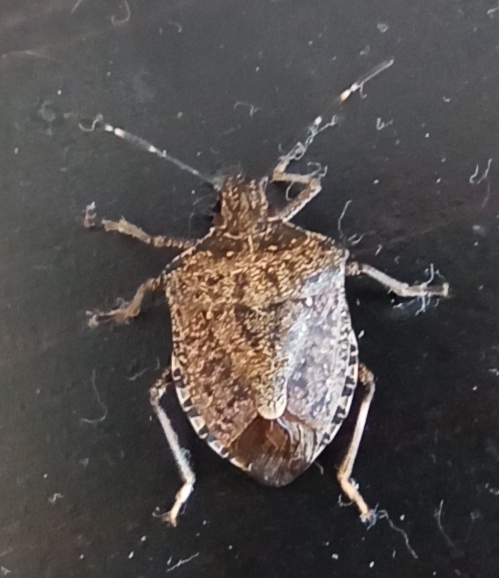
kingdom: Animalia
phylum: Arthropoda
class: Insecta
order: Hemiptera
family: Pentatomidae
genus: Halyomorpha
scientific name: Halyomorpha halys
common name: Brown marmorated stink bug
